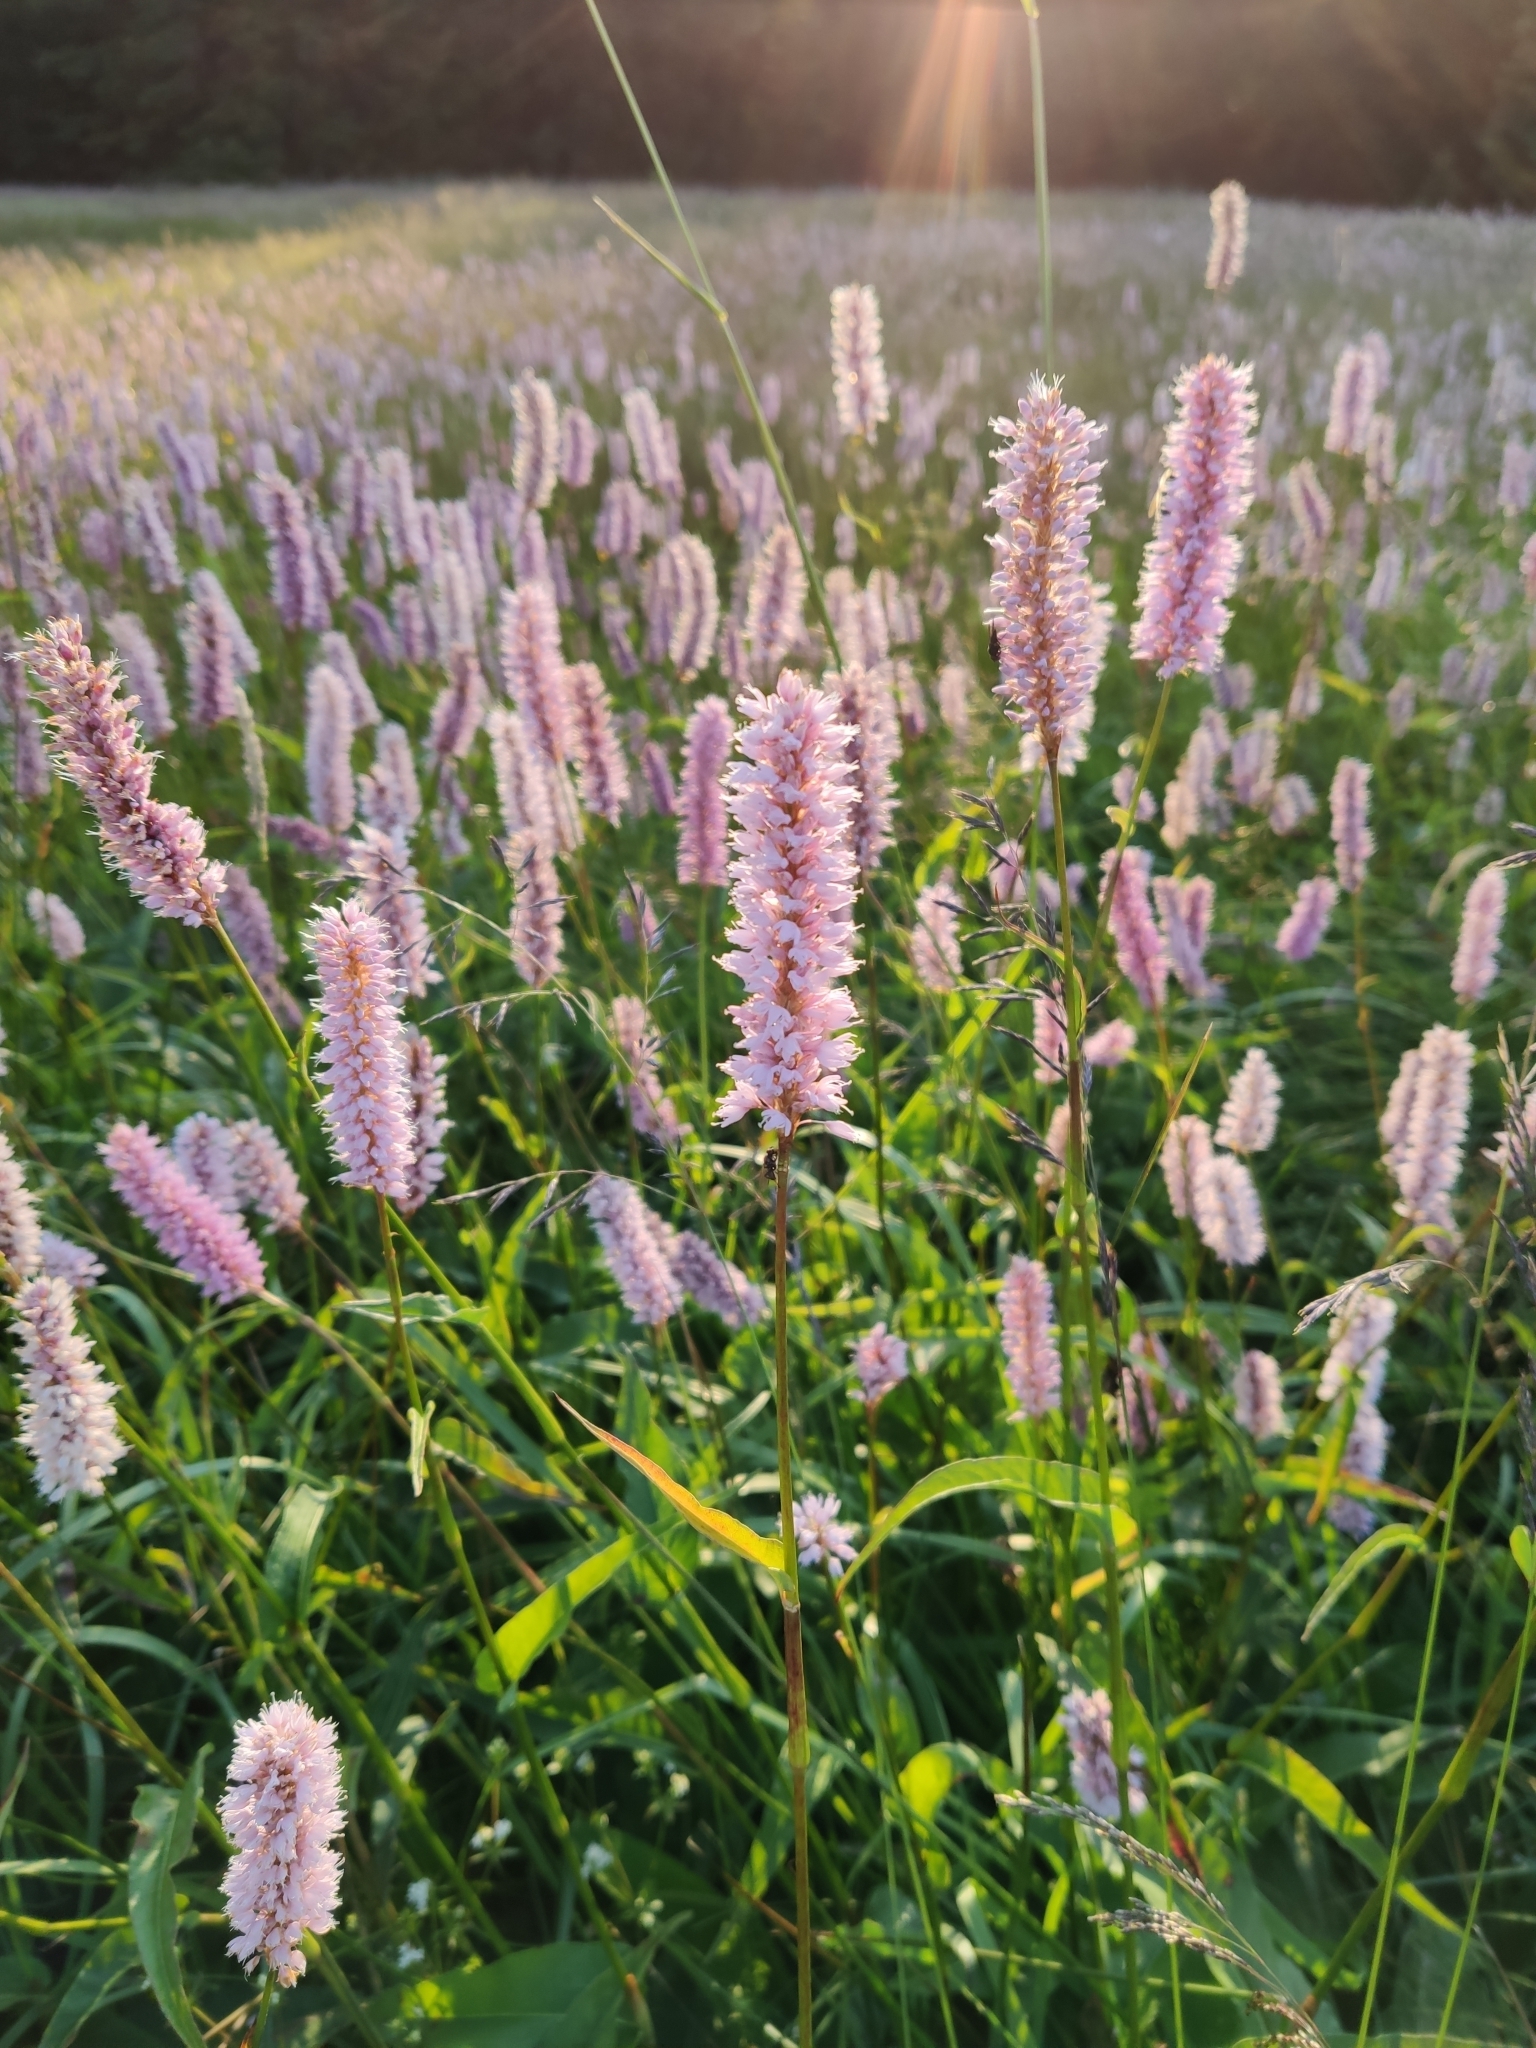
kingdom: Plantae
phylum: Tracheophyta
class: Magnoliopsida
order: Caryophyllales
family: Polygonaceae
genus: Bistorta
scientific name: Bistorta officinalis
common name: Common bistort
